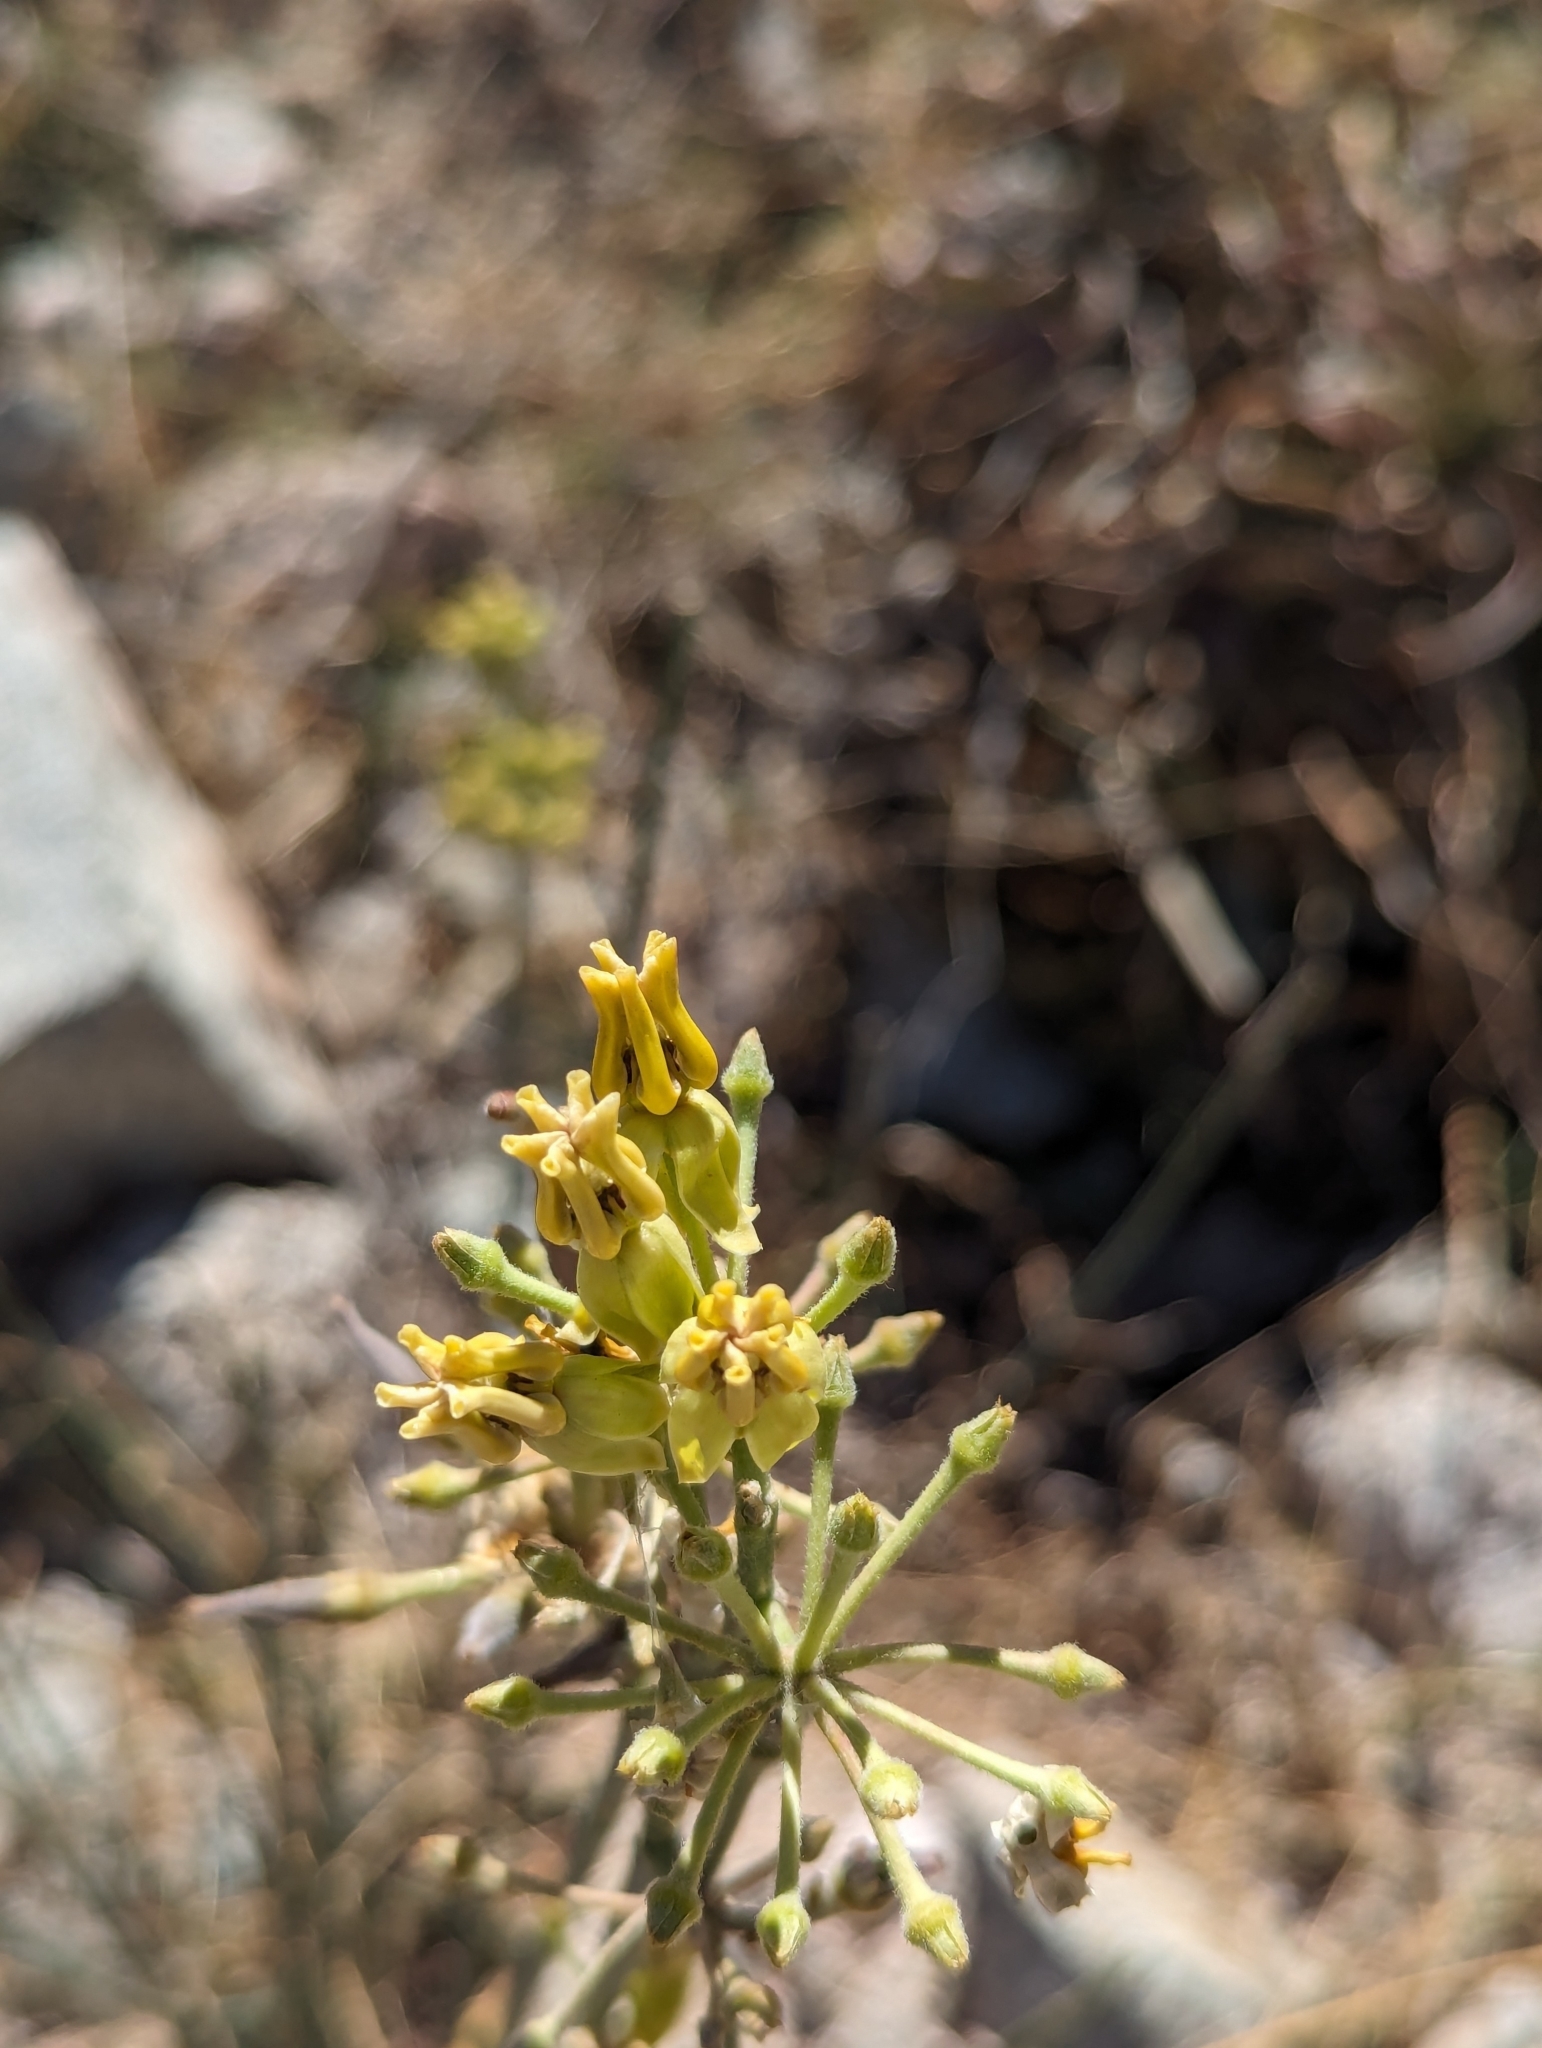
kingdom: Plantae
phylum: Tracheophyta
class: Magnoliopsida
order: Gentianales
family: Apocynaceae
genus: Asclepias
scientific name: Asclepias subulata
